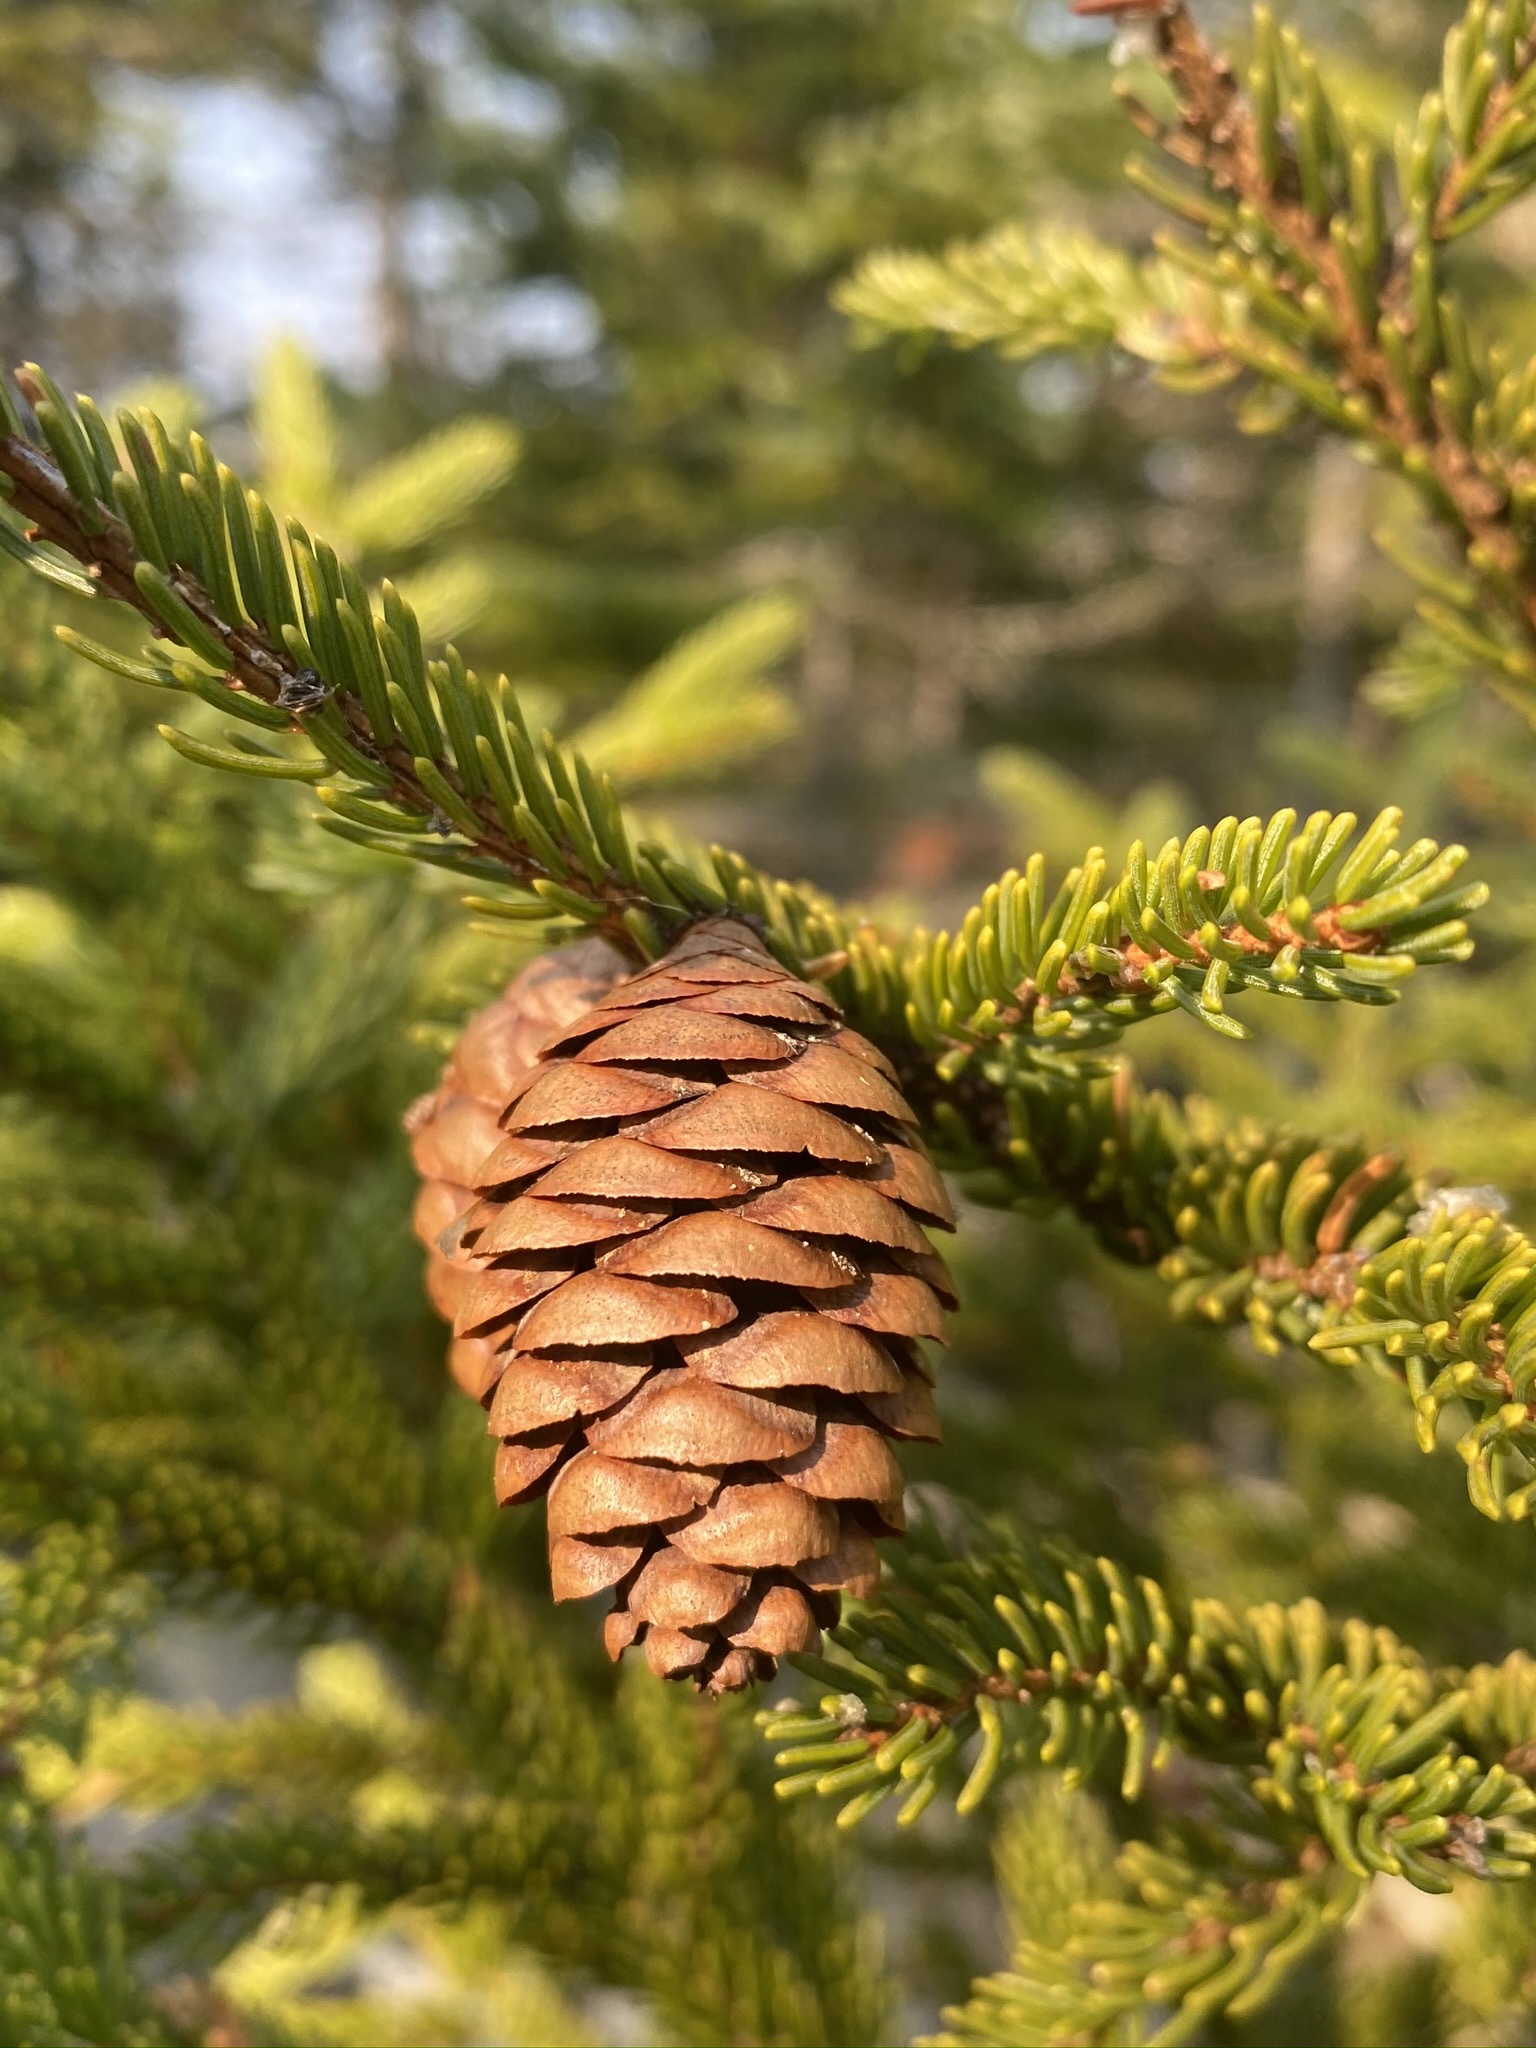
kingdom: Plantae
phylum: Tracheophyta
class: Pinopsida
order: Pinales
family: Pinaceae
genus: Picea
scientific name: Picea rubens
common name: Red spruce
